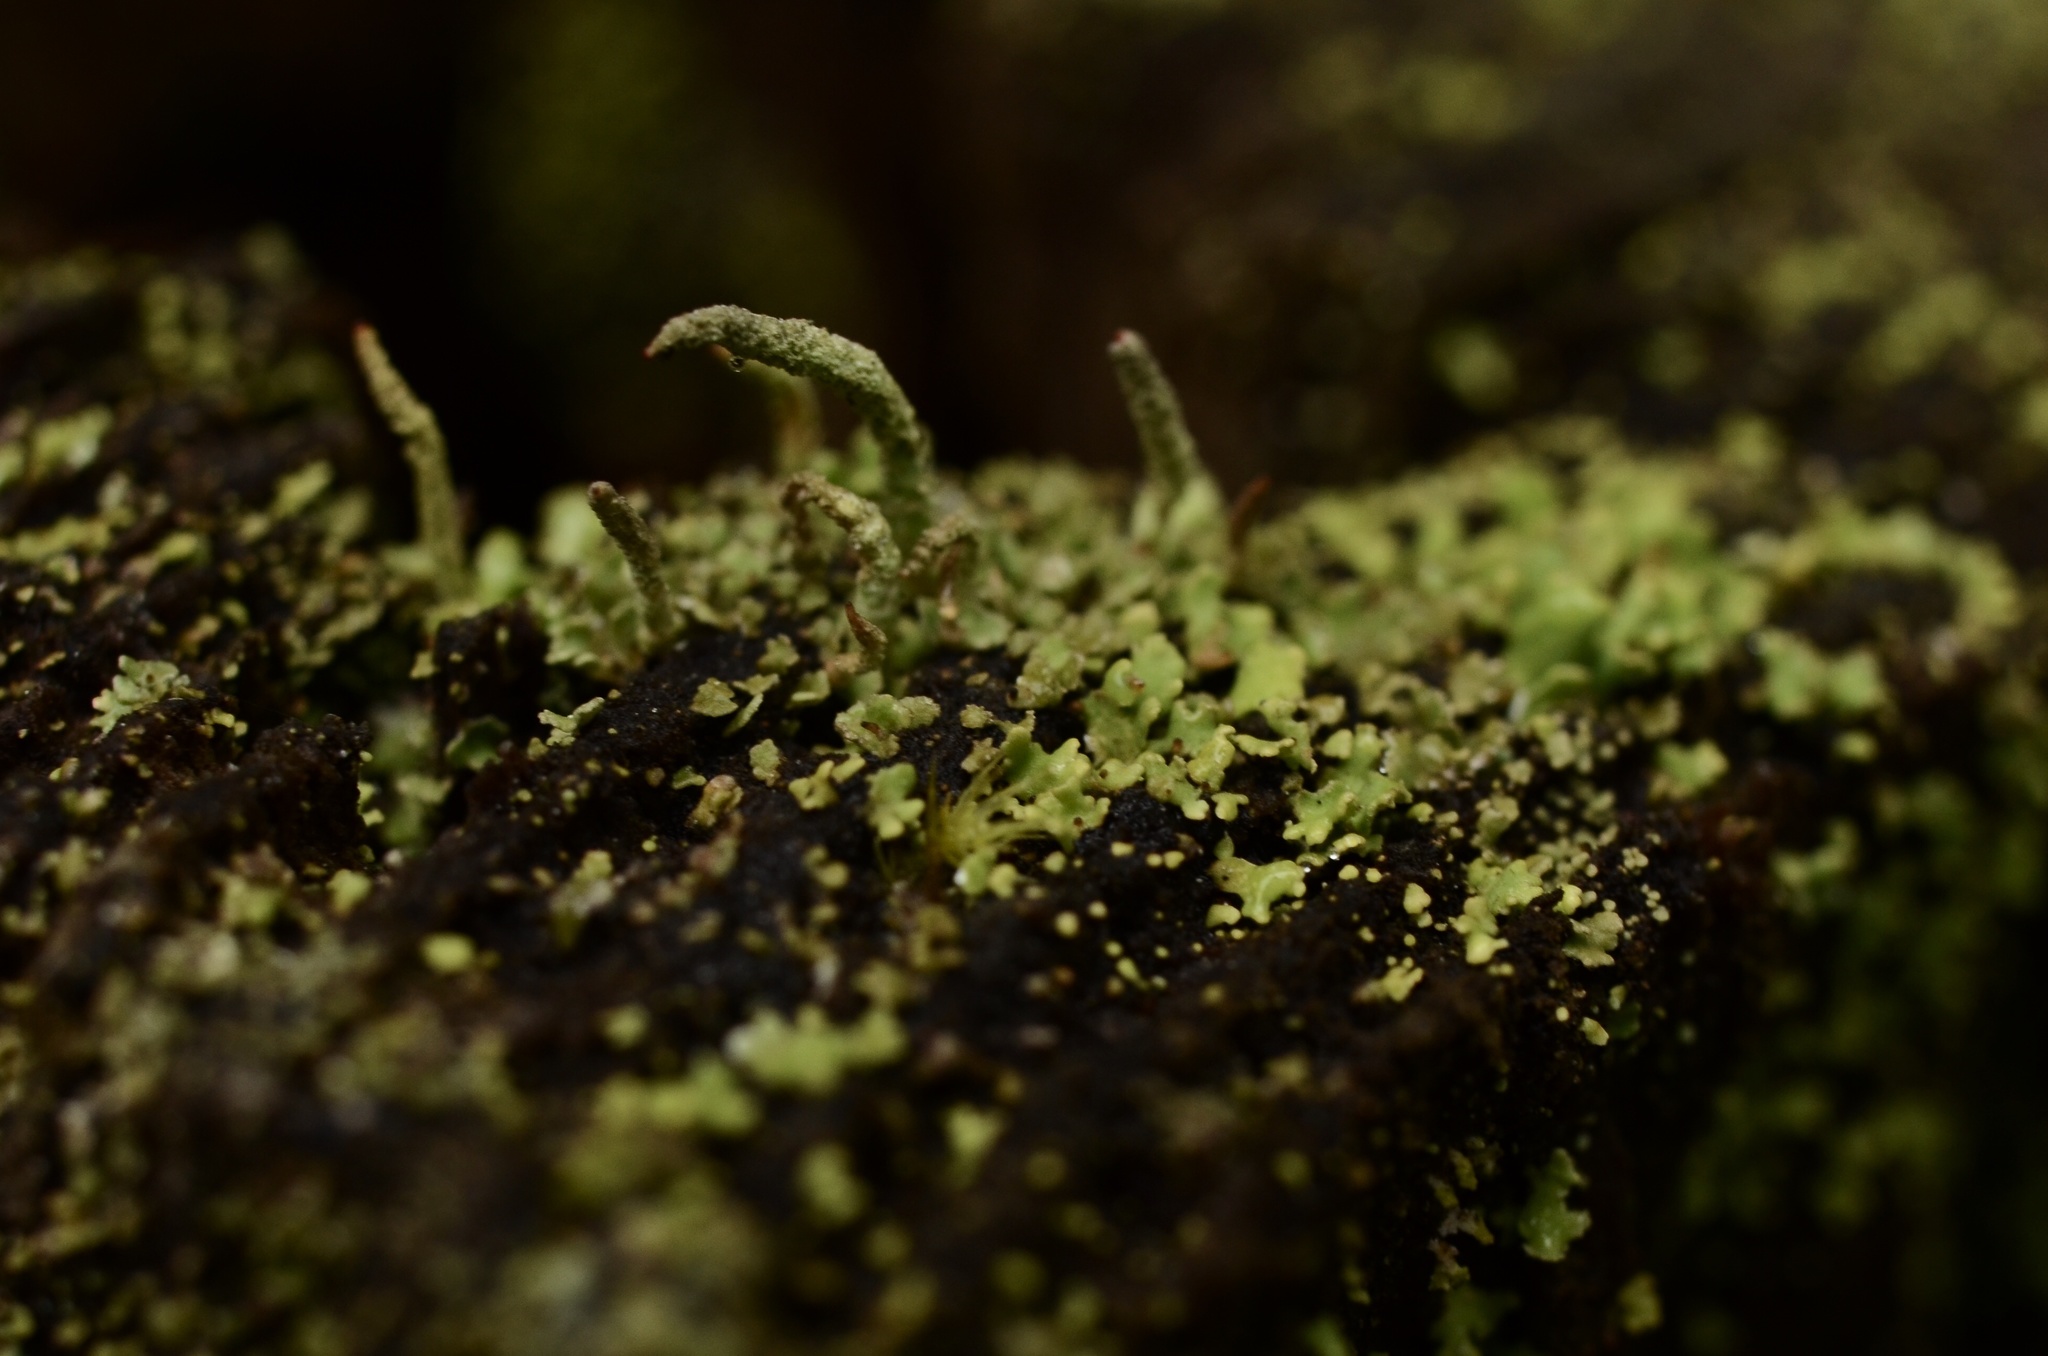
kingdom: Fungi
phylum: Ascomycota
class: Lecanoromycetes
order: Lecanorales
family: Cladoniaceae
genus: Cladonia
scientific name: Cladonia coniocraea
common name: Common powderhorn
